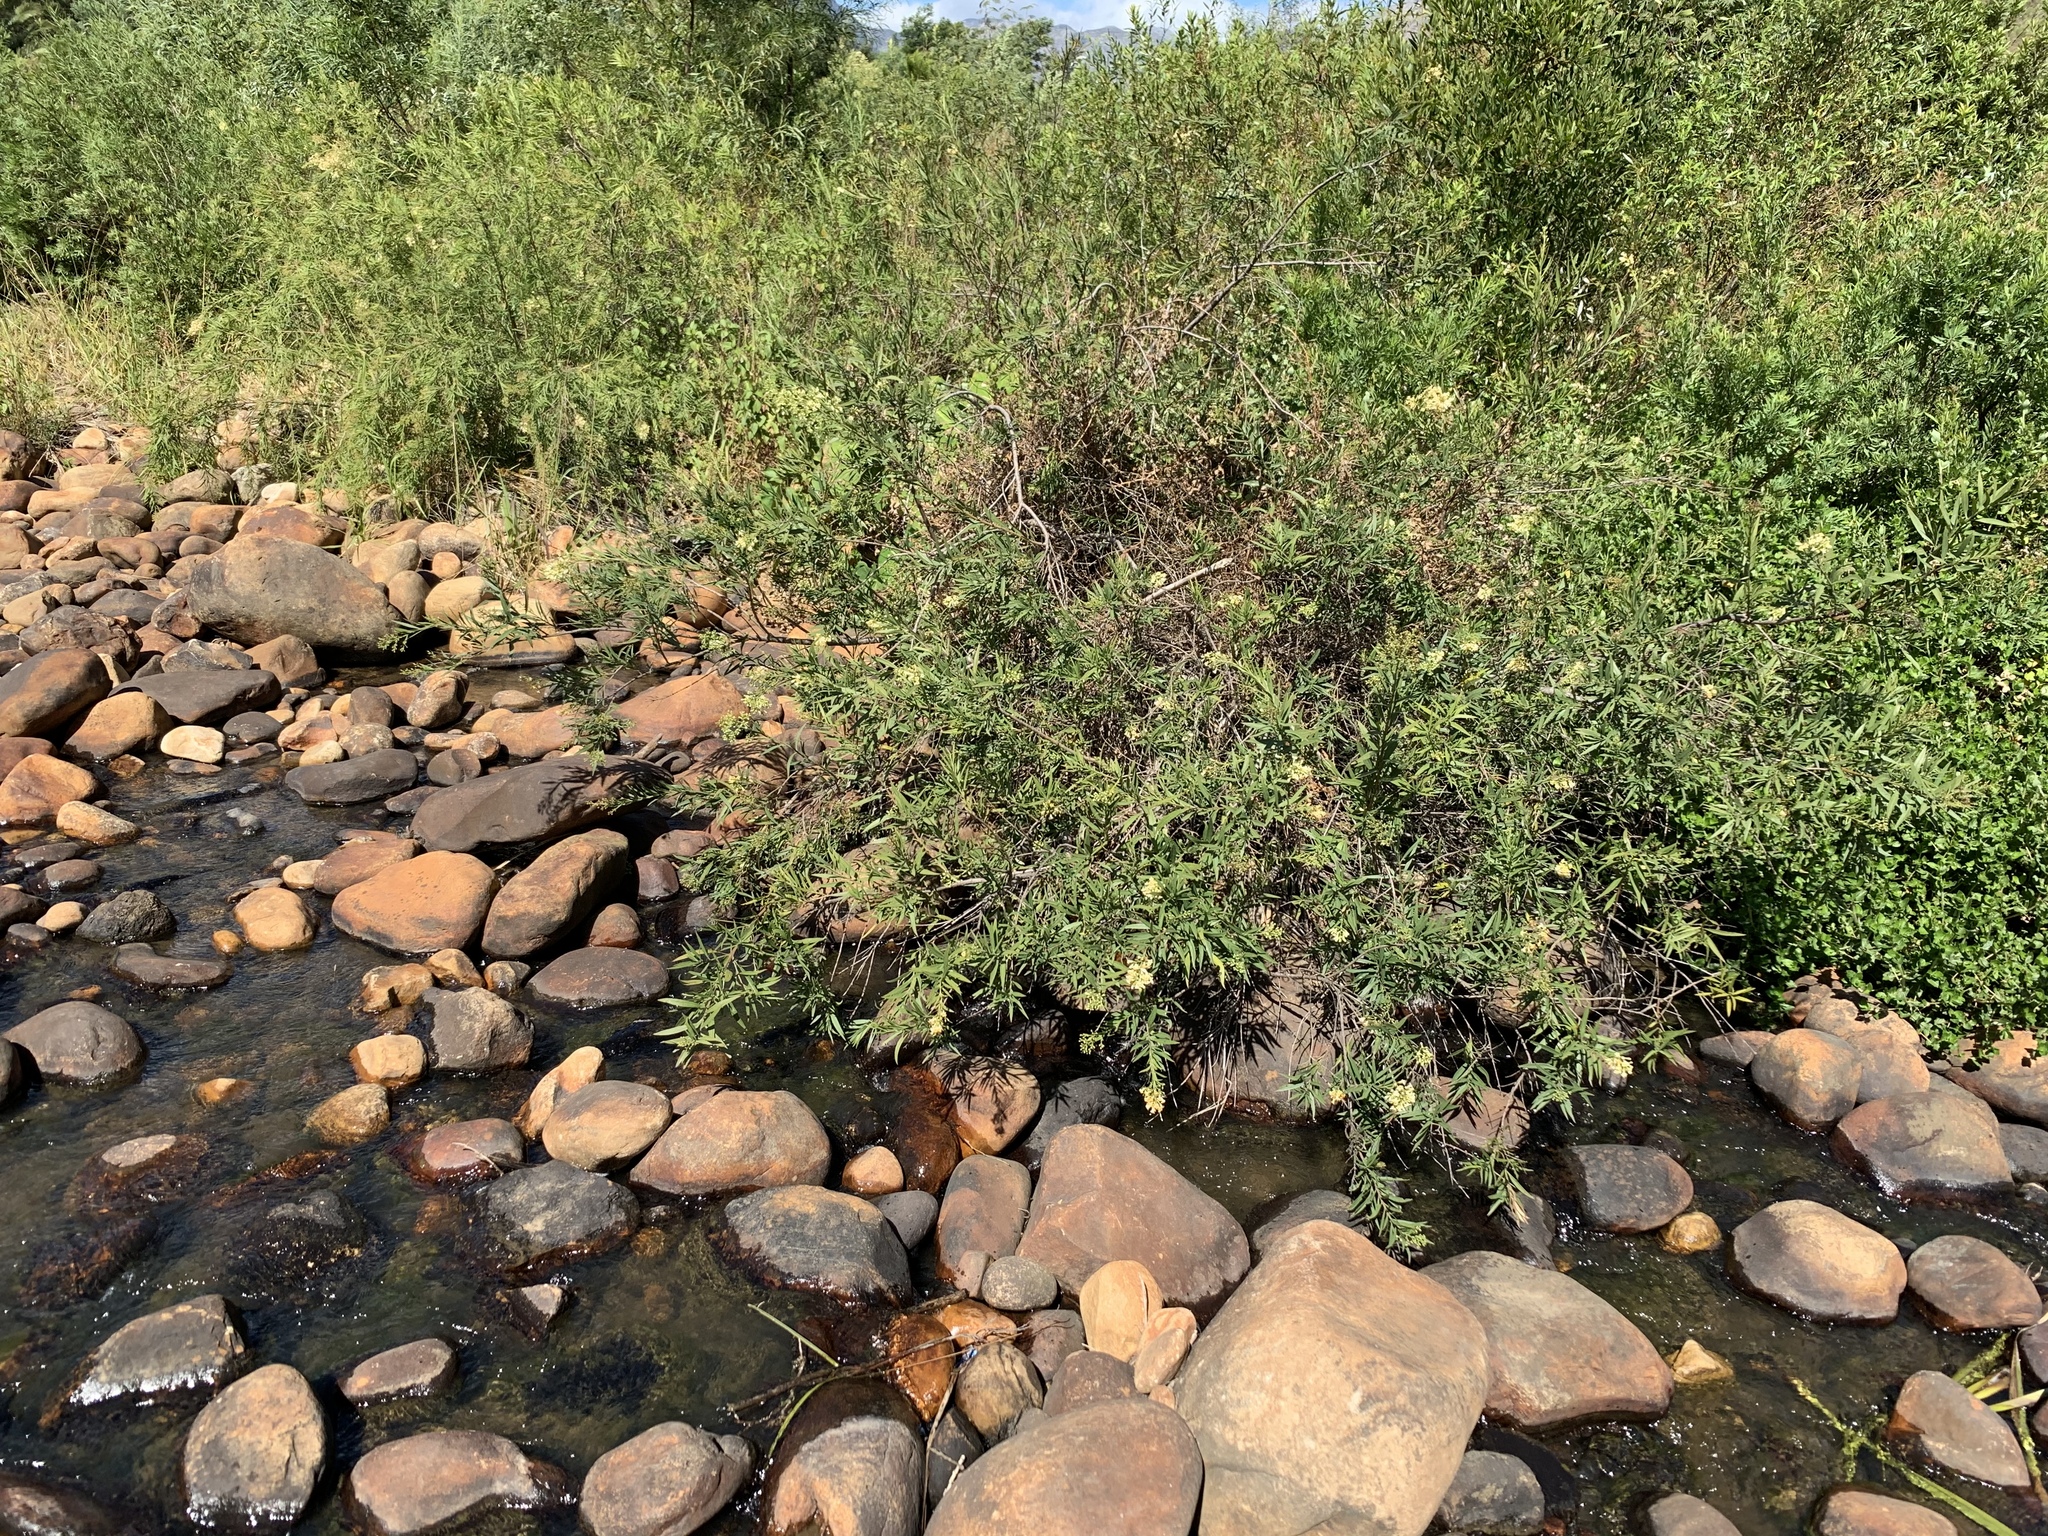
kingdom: Plantae
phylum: Tracheophyta
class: Magnoliopsida
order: Lamiales
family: Scrophulariaceae
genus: Freylinia
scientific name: Freylinia lanceolata
